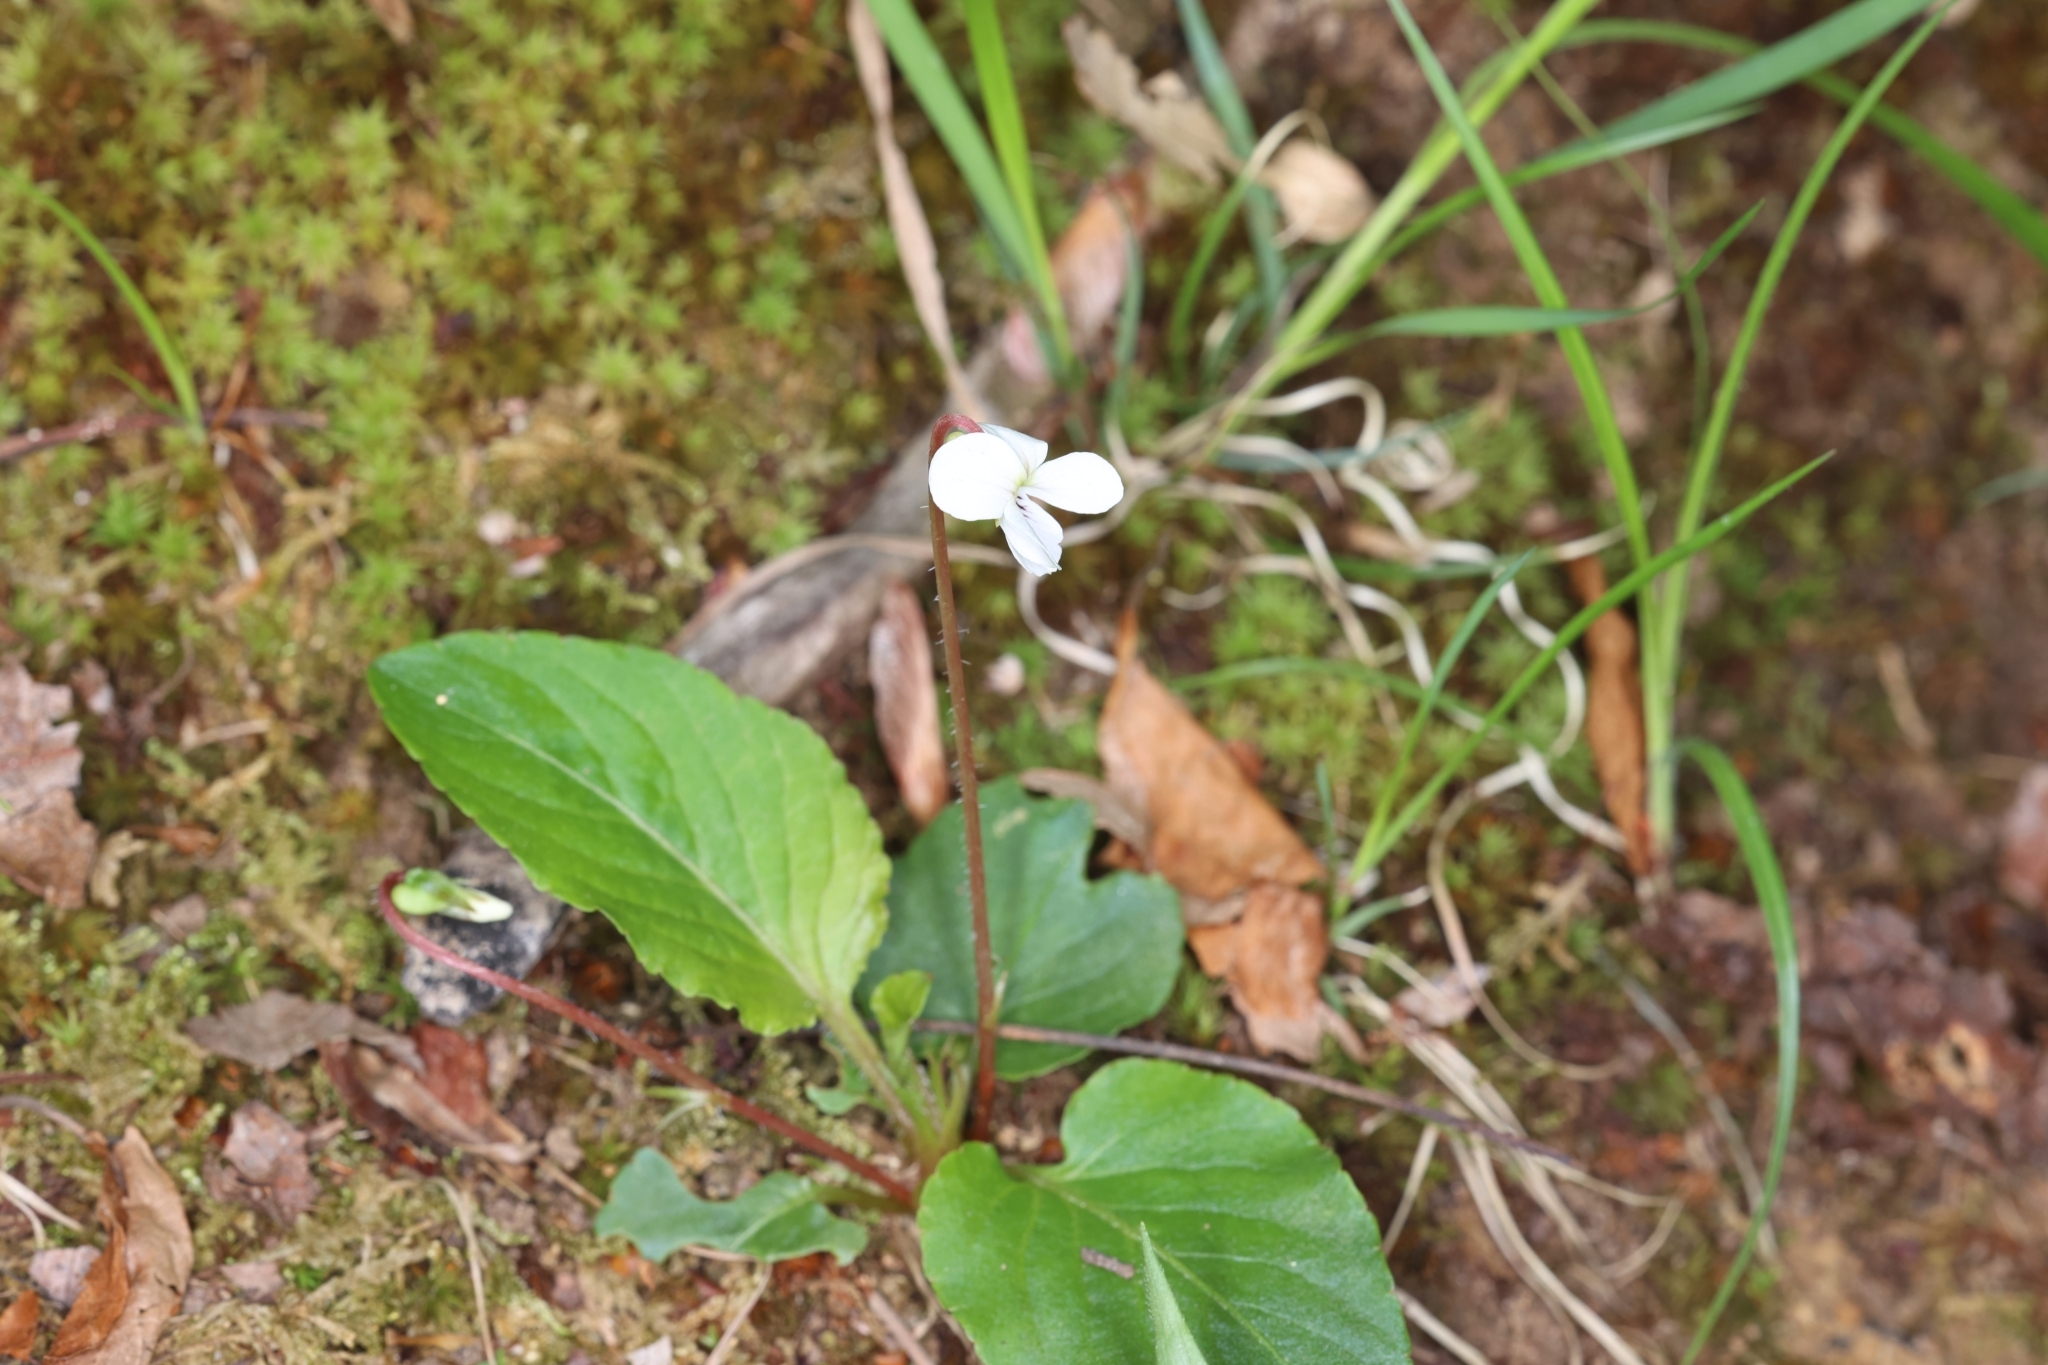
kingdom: Plantae
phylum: Tracheophyta
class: Magnoliopsida
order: Malpighiales
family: Violaceae
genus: Viola
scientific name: Viola primulifolia
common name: Primrose-leaf violet
